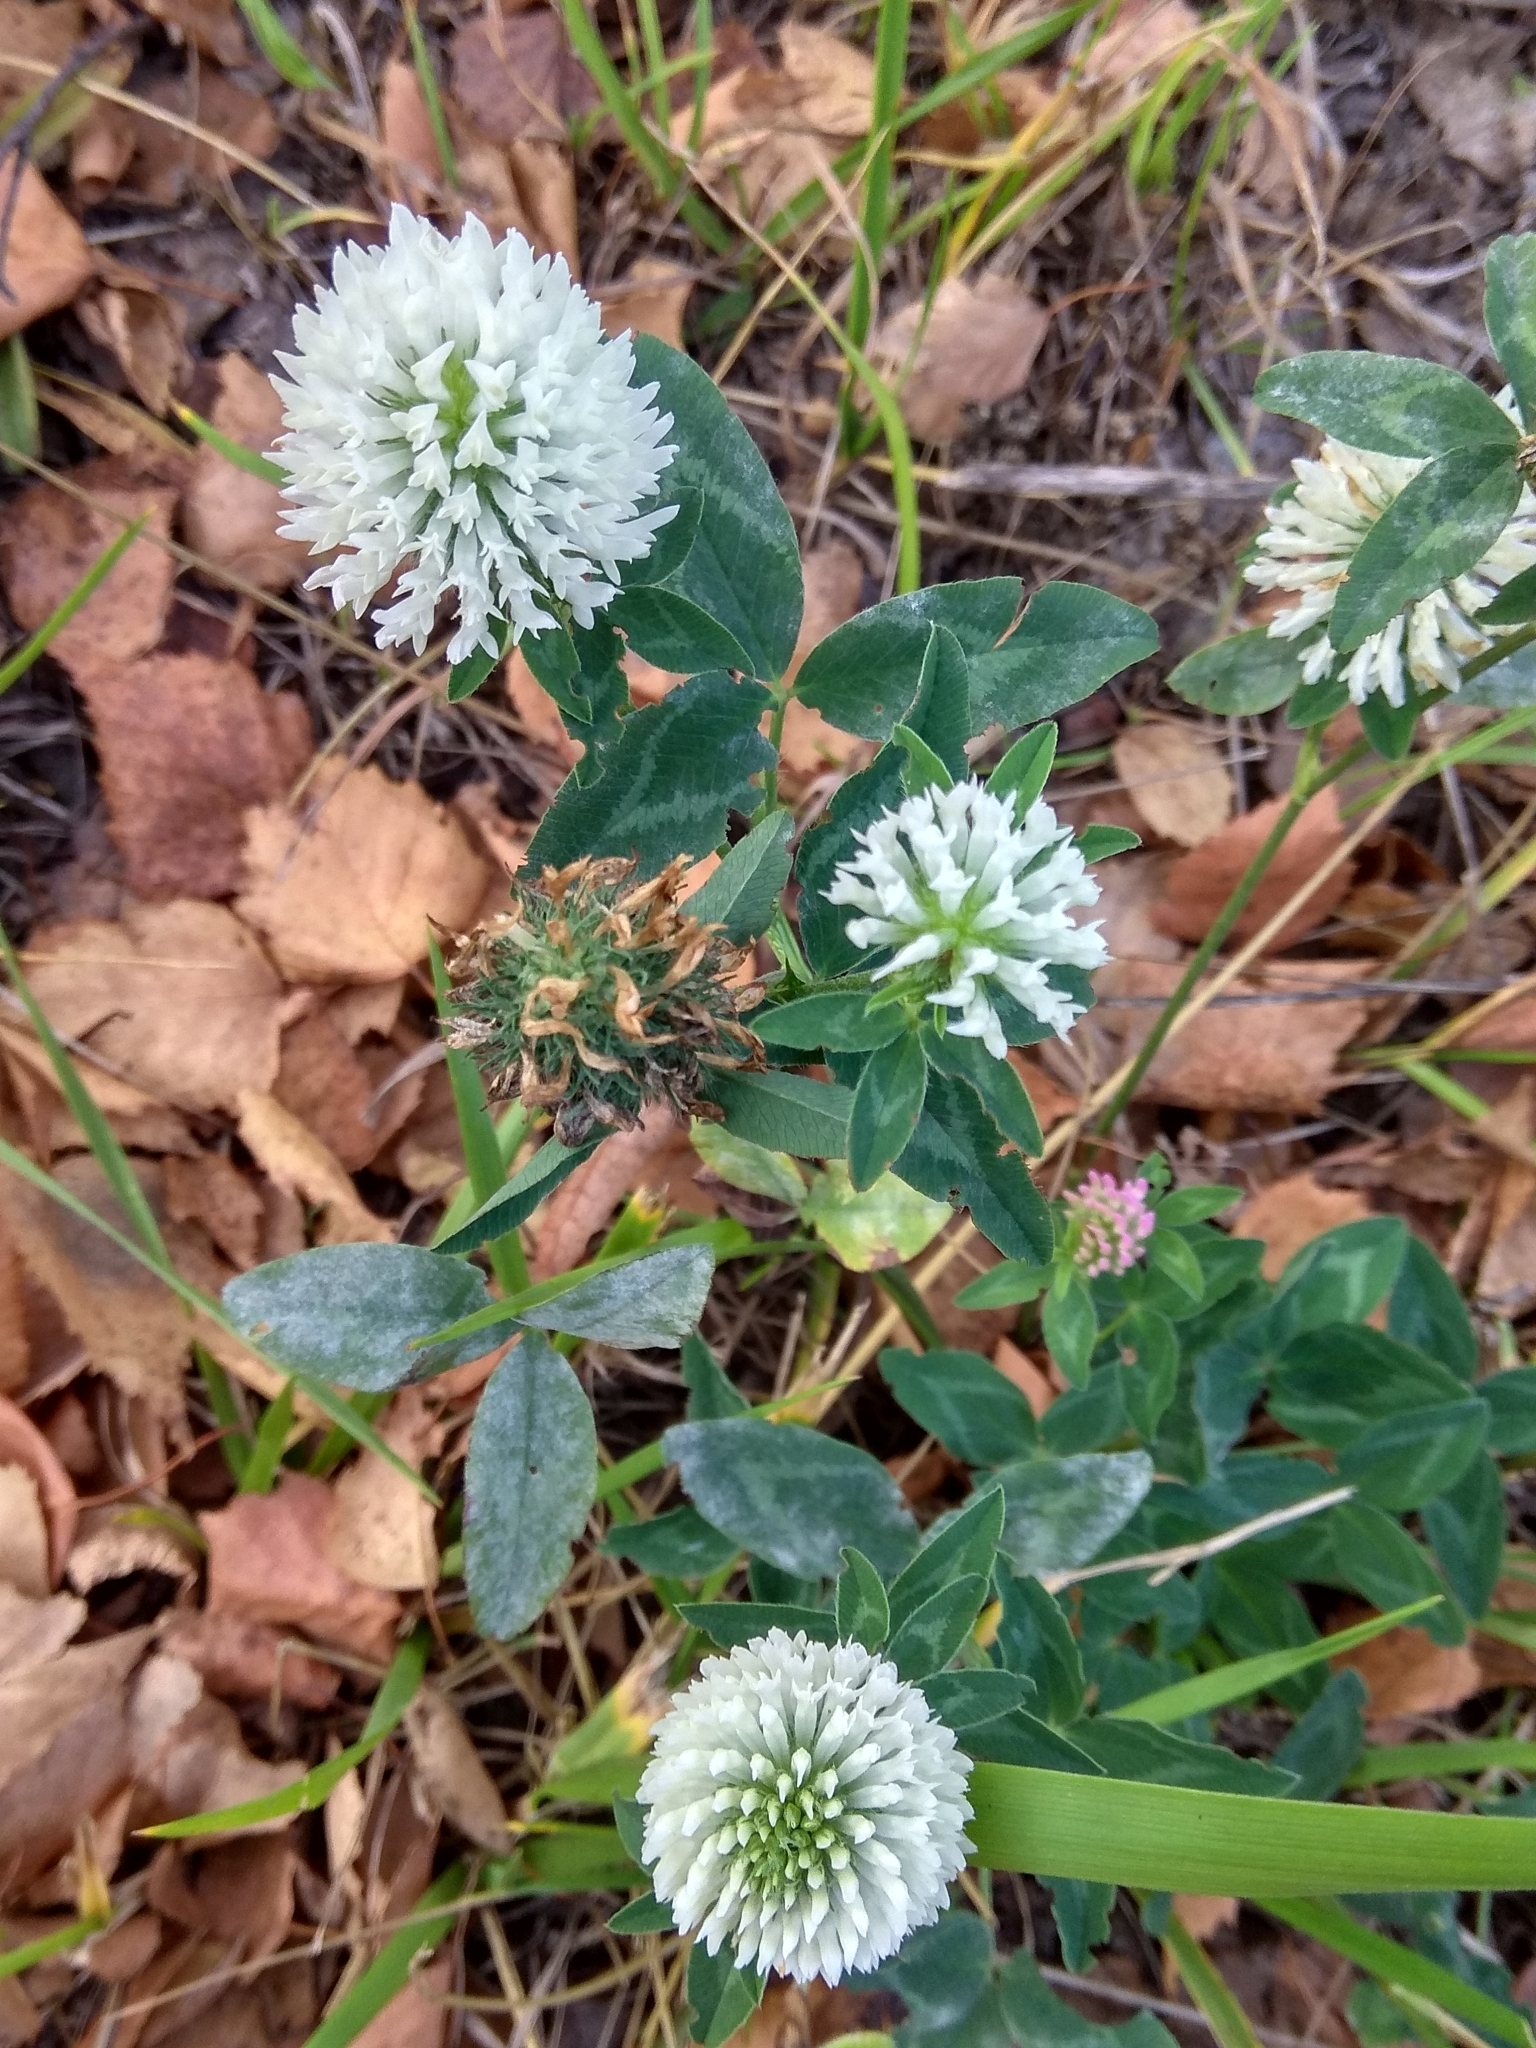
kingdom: Plantae
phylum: Tracheophyta
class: Magnoliopsida
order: Fabales
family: Fabaceae
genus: Trifolium
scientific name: Trifolium pratense
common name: Red clover
